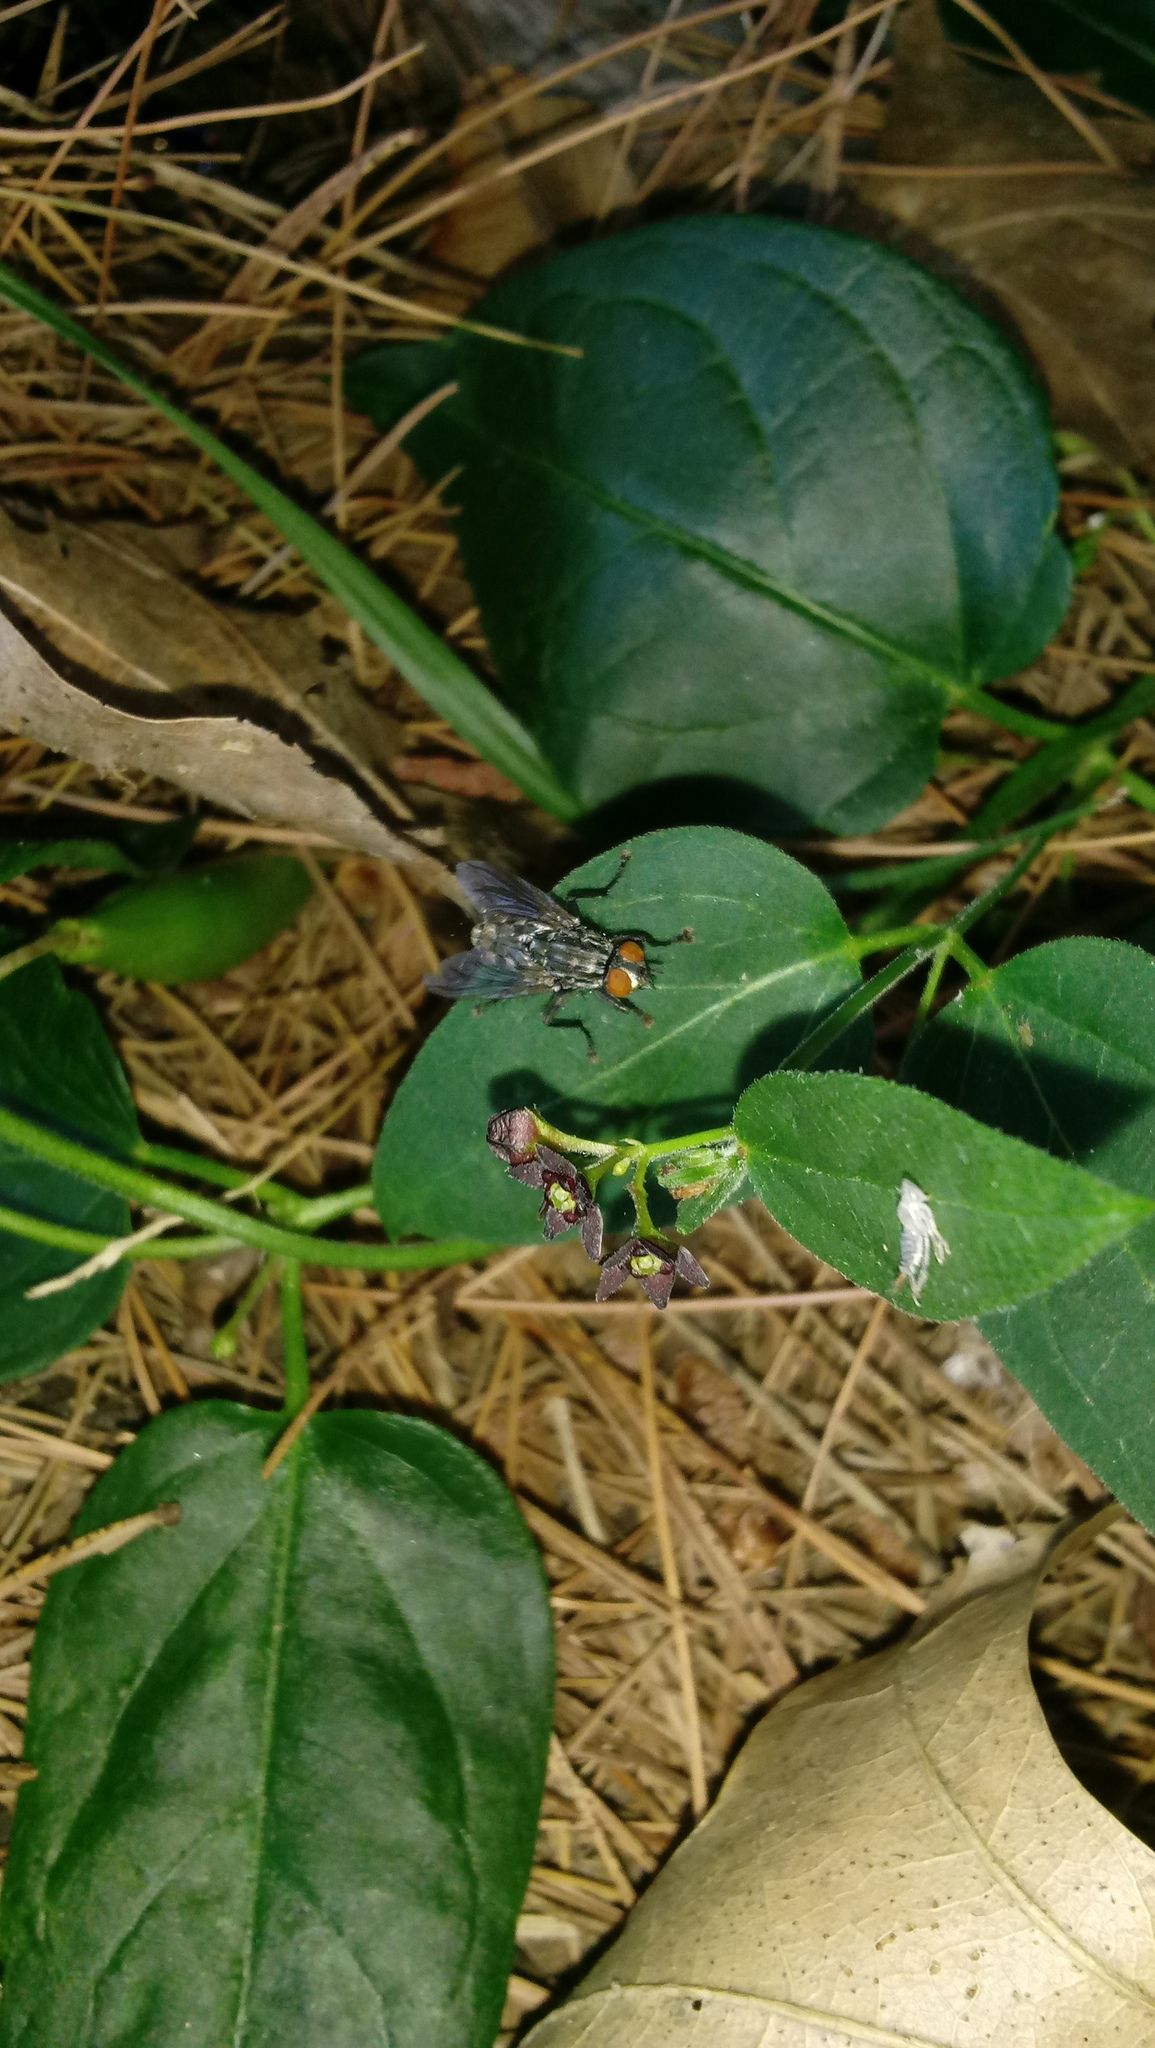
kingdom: Plantae
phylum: Tracheophyta
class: Magnoliopsida
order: Gentianales
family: Apocynaceae
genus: Vincetoxicum
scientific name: Vincetoxicum nigrum
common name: Black swallow-wort
